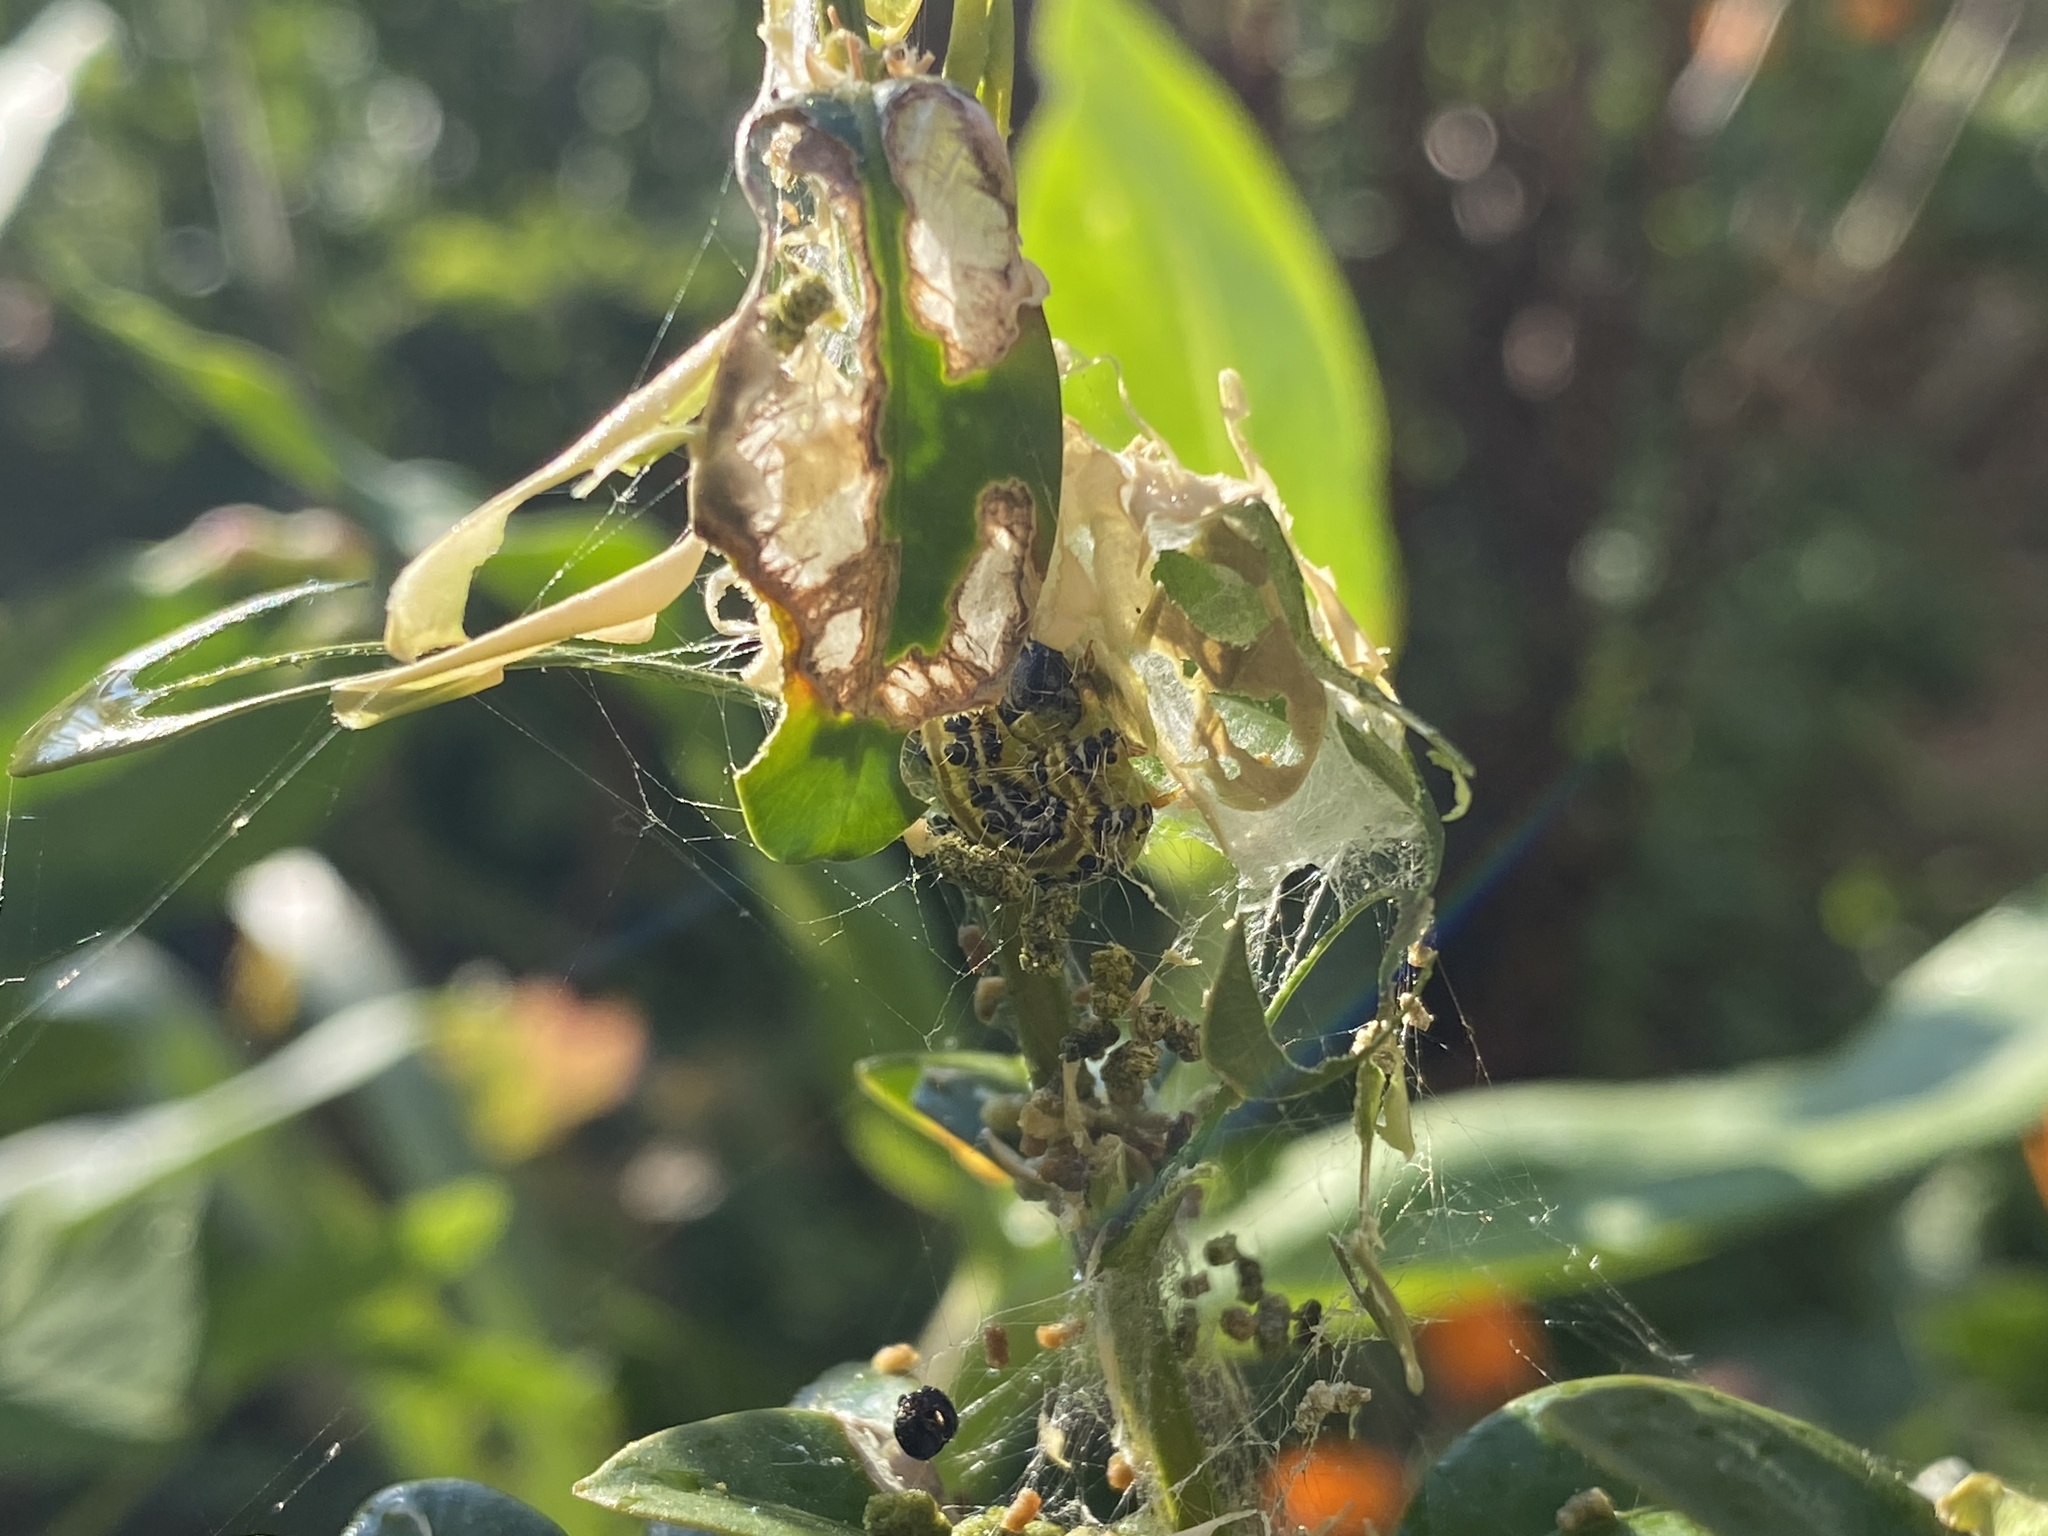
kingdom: Animalia
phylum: Arthropoda
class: Insecta
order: Lepidoptera
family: Crambidae
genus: Cydalima
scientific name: Cydalima perspectalis
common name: Box tree moth
